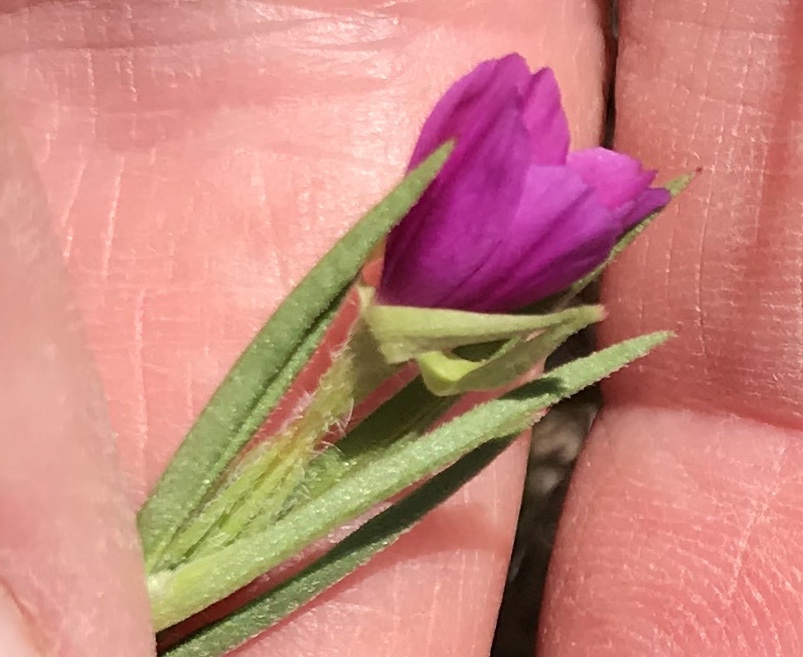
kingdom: Plantae
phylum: Tracheophyta
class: Magnoliopsida
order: Myrtales
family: Onagraceae
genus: Clarkia
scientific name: Clarkia purpurea
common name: Purple clarkia
